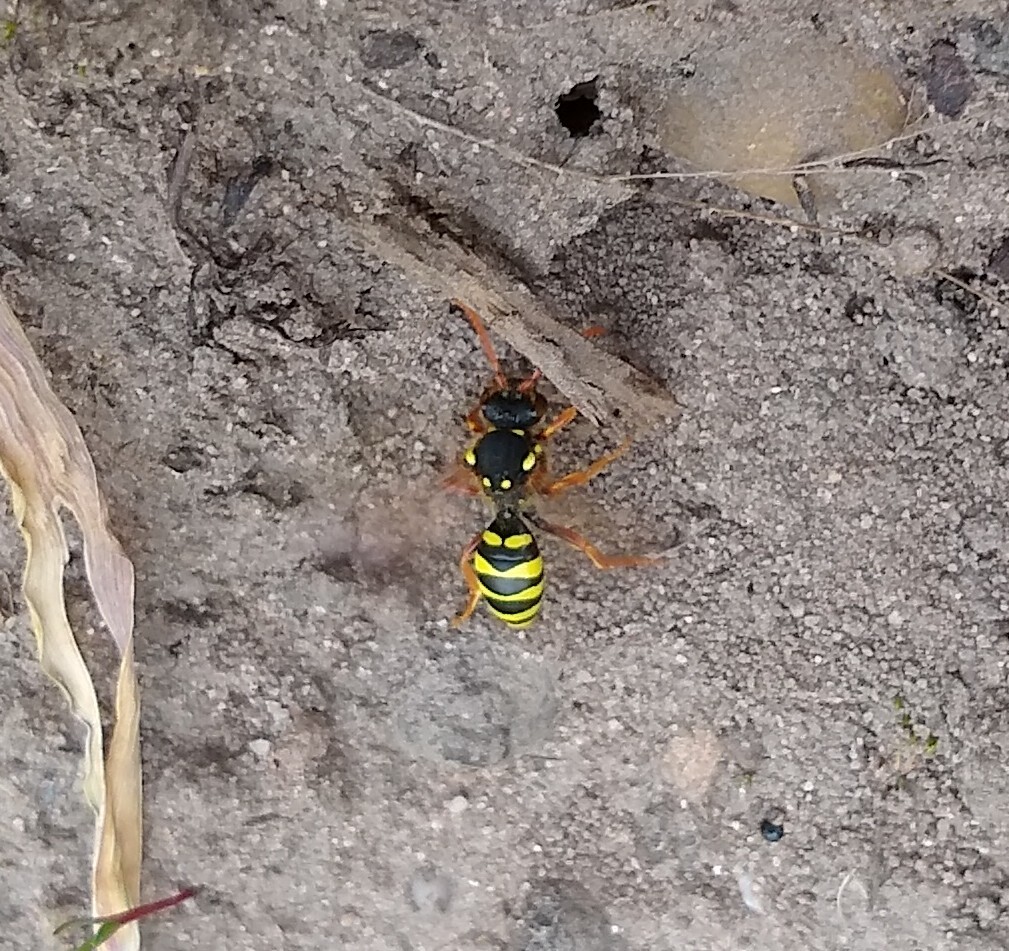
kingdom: Animalia
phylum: Arthropoda
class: Insecta
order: Hymenoptera
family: Apidae
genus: Nomada
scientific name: Nomada goodeniana
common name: Gooden's nomad bee
